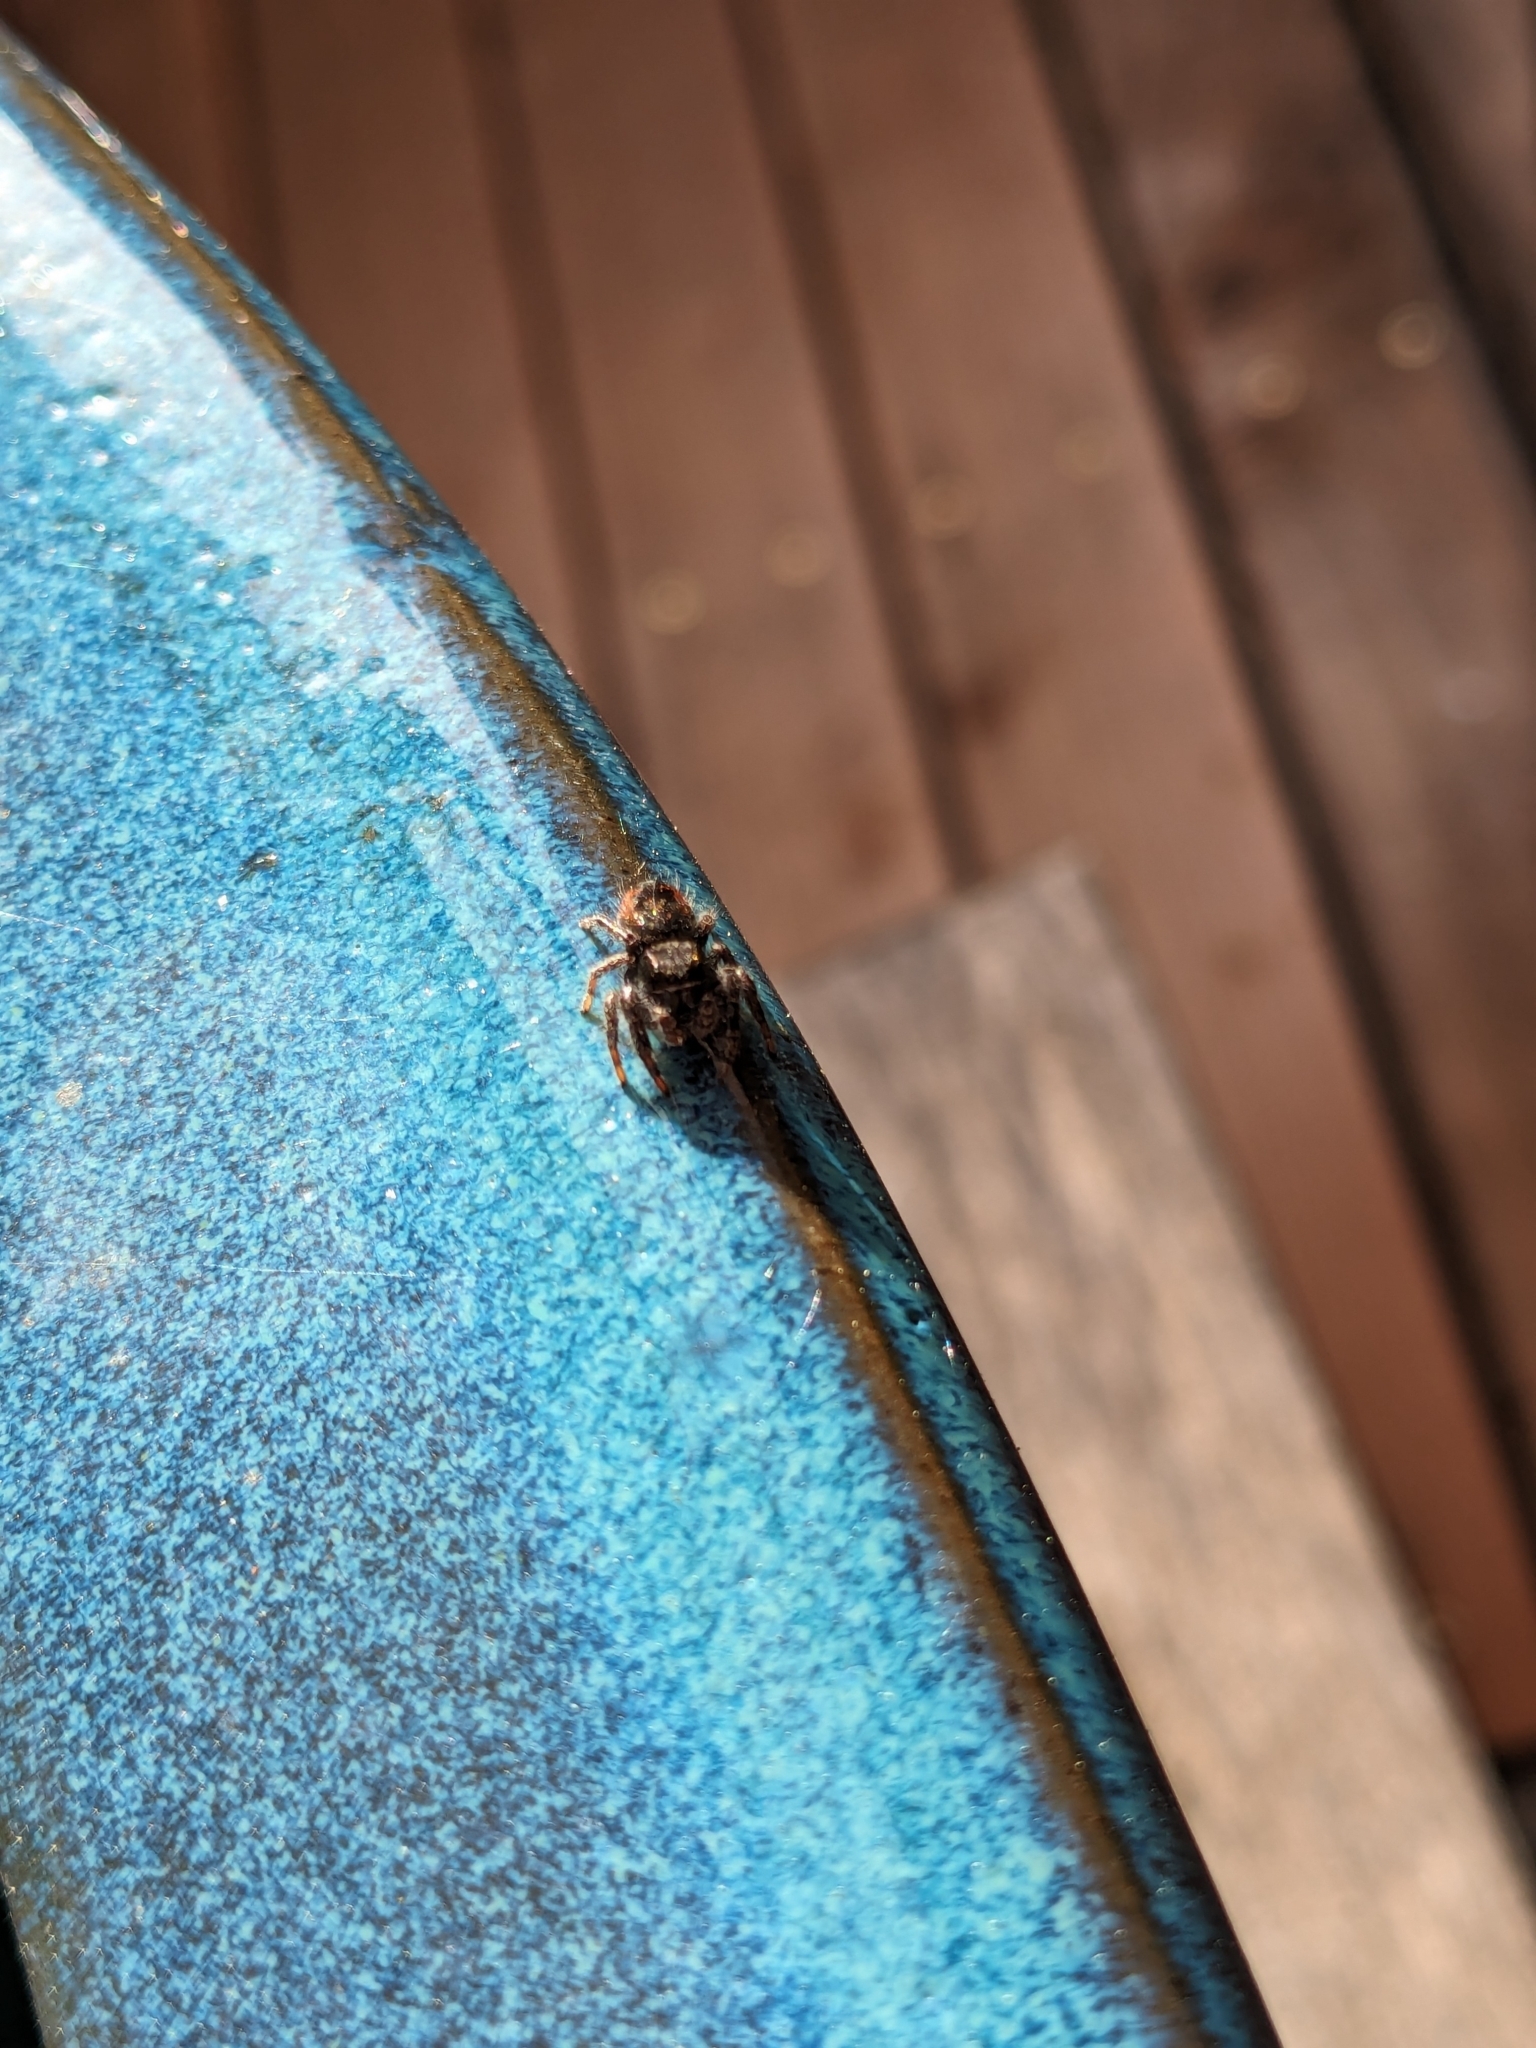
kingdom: Animalia
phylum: Arthropoda
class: Arachnida
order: Araneae
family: Salticidae
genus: Phidippus
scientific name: Phidippus johnsoni
